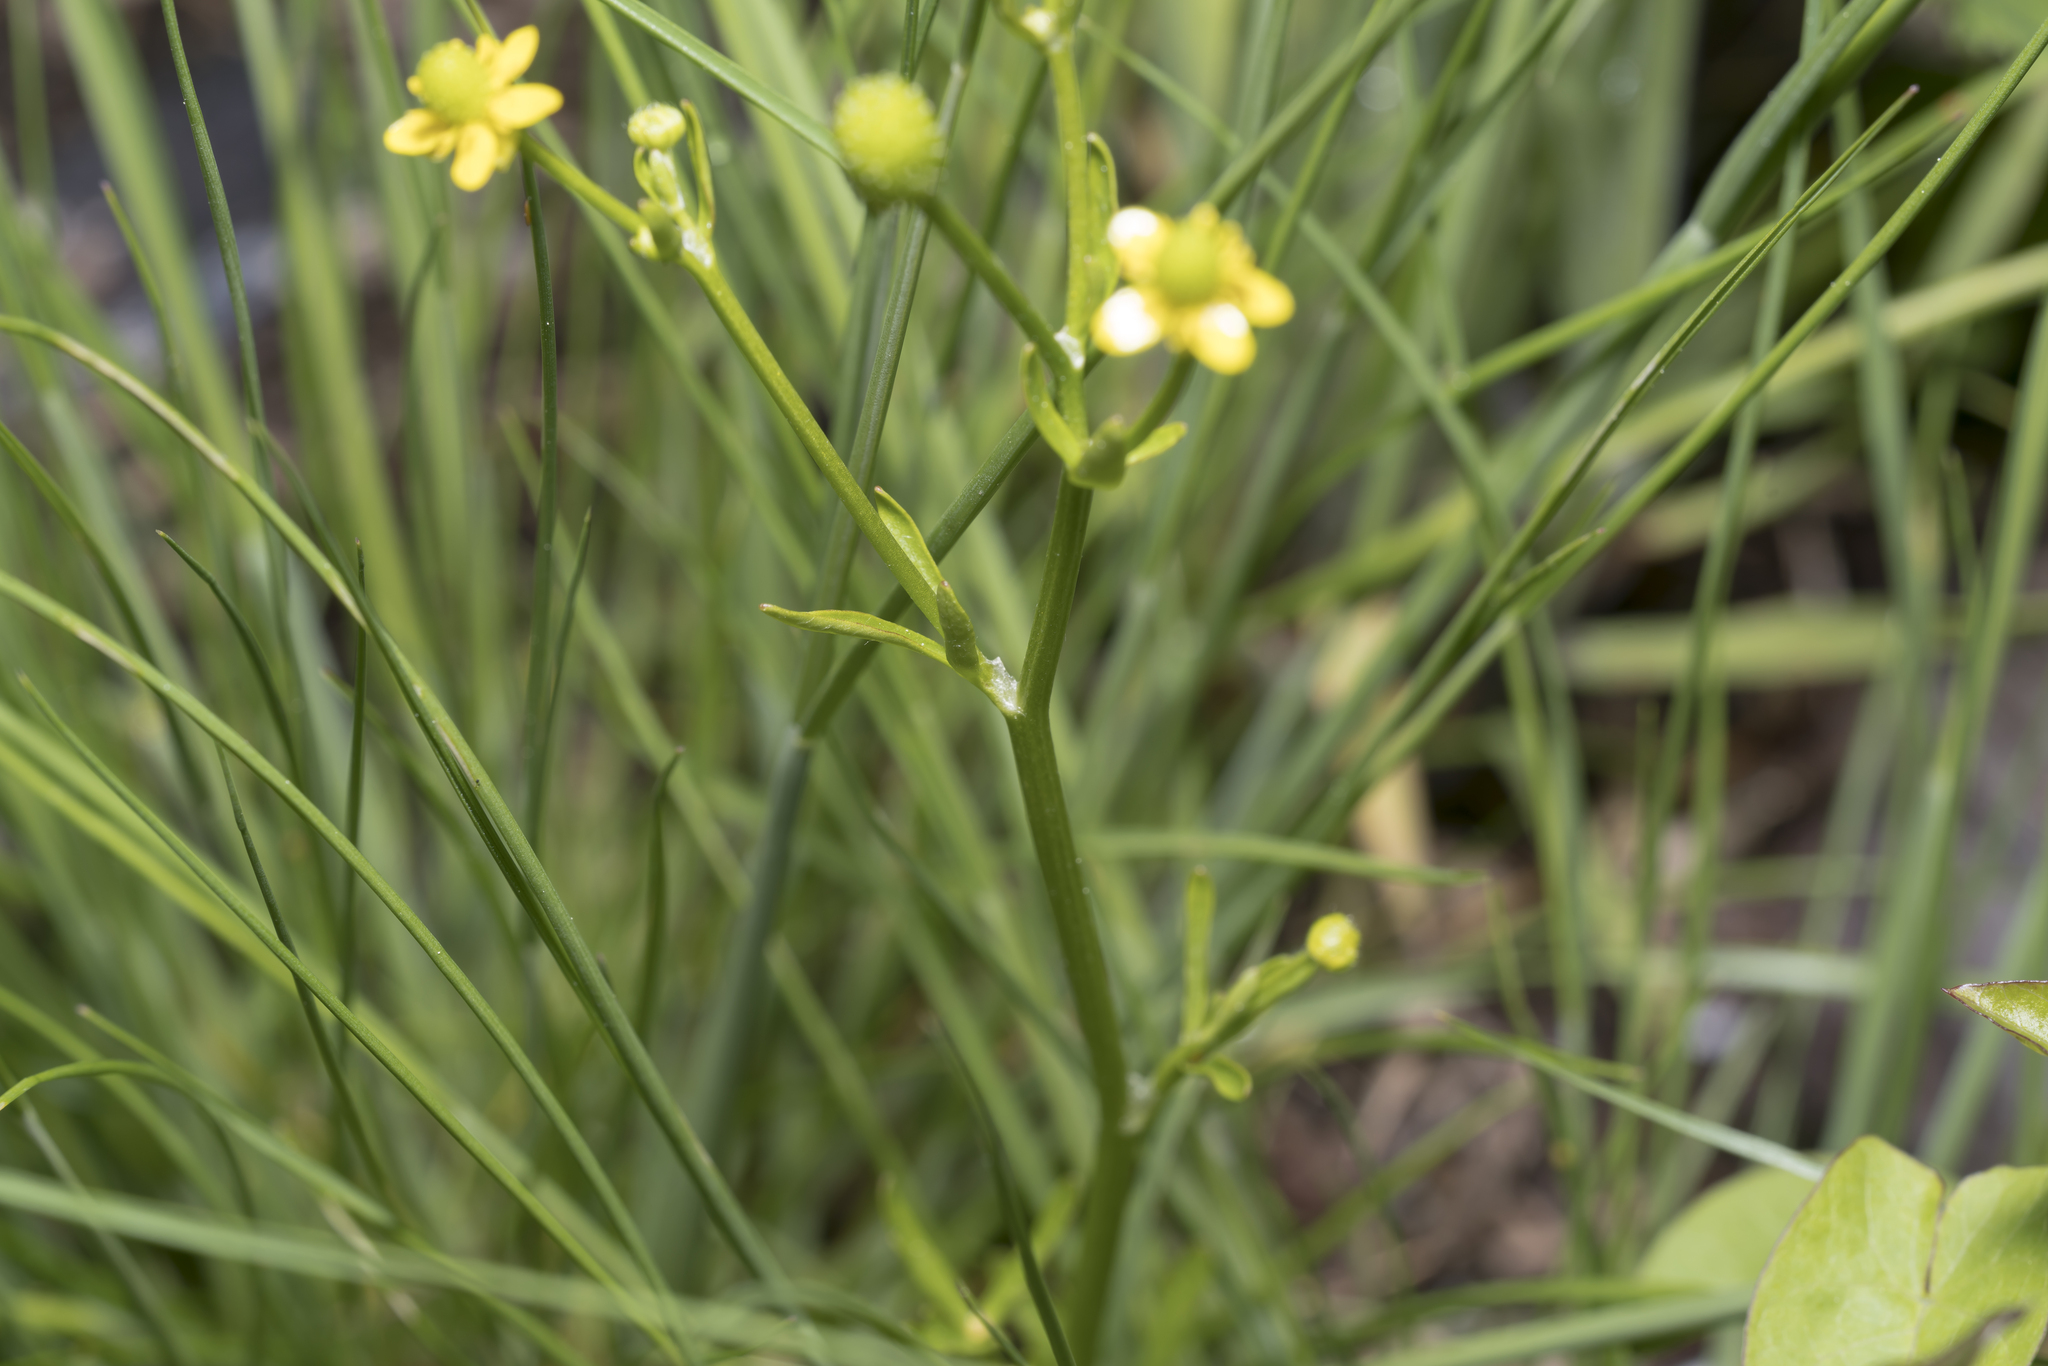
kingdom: Plantae
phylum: Tracheophyta
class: Magnoliopsida
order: Ranunculales
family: Ranunculaceae
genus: Ranunculus
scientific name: Ranunculus sceleratus
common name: Celery-leaved buttercup
